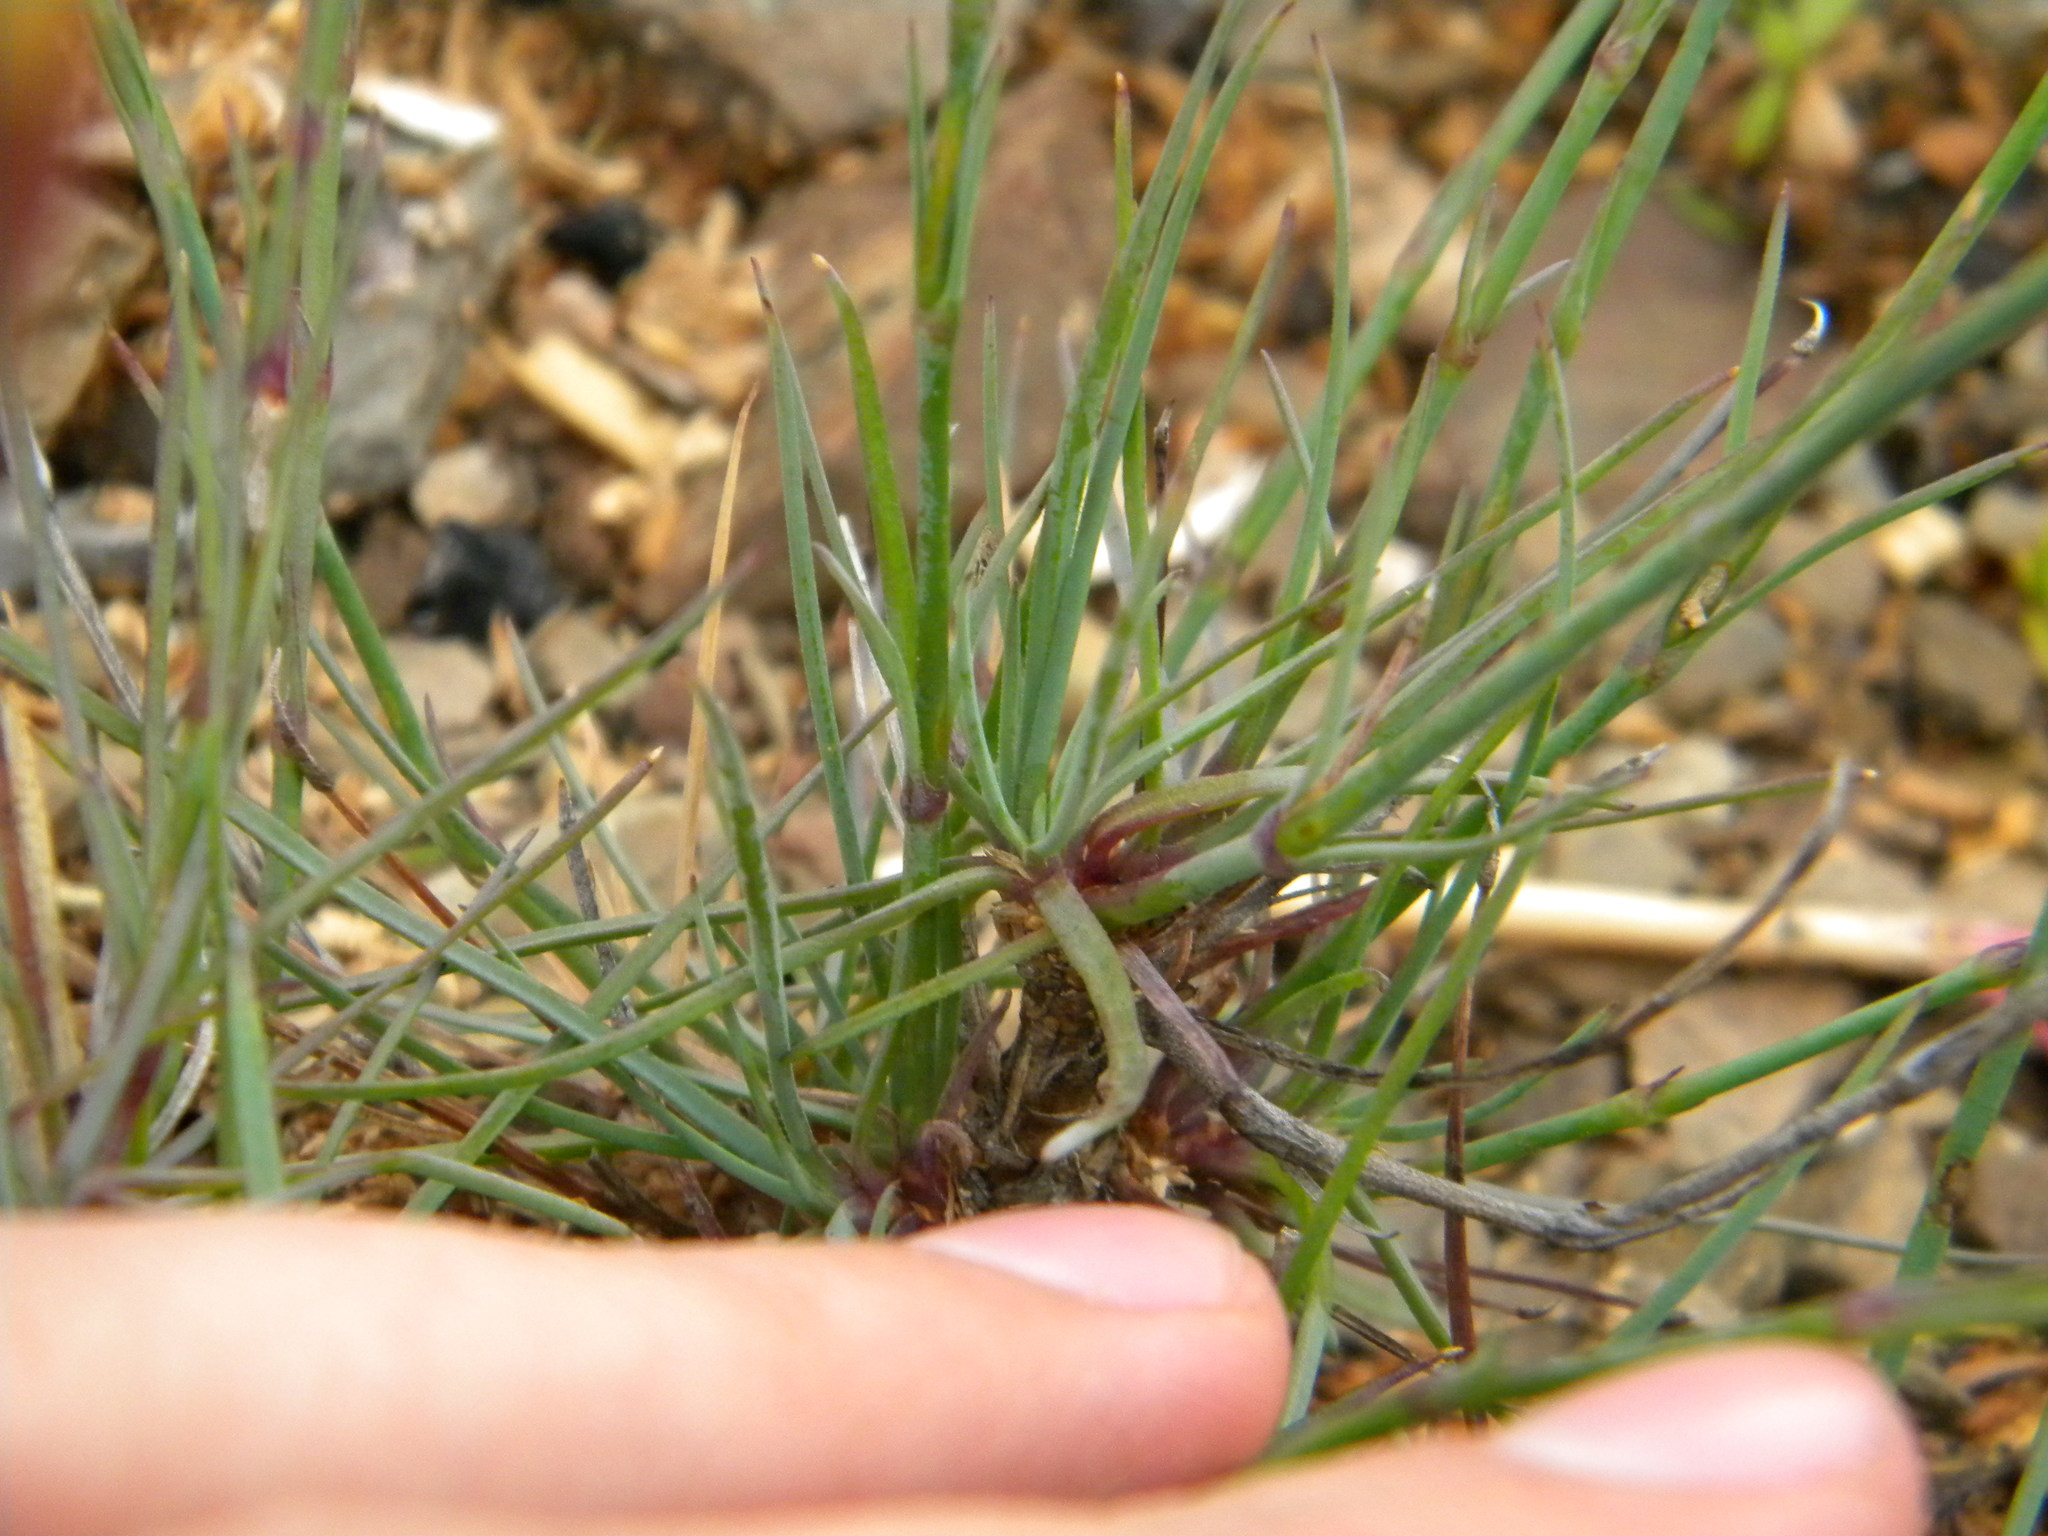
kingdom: Plantae
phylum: Tracheophyta
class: Magnoliopsida
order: Caryophyllales
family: Caryophyllaceae
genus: Dianthus
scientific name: Dianthus caespitosus
